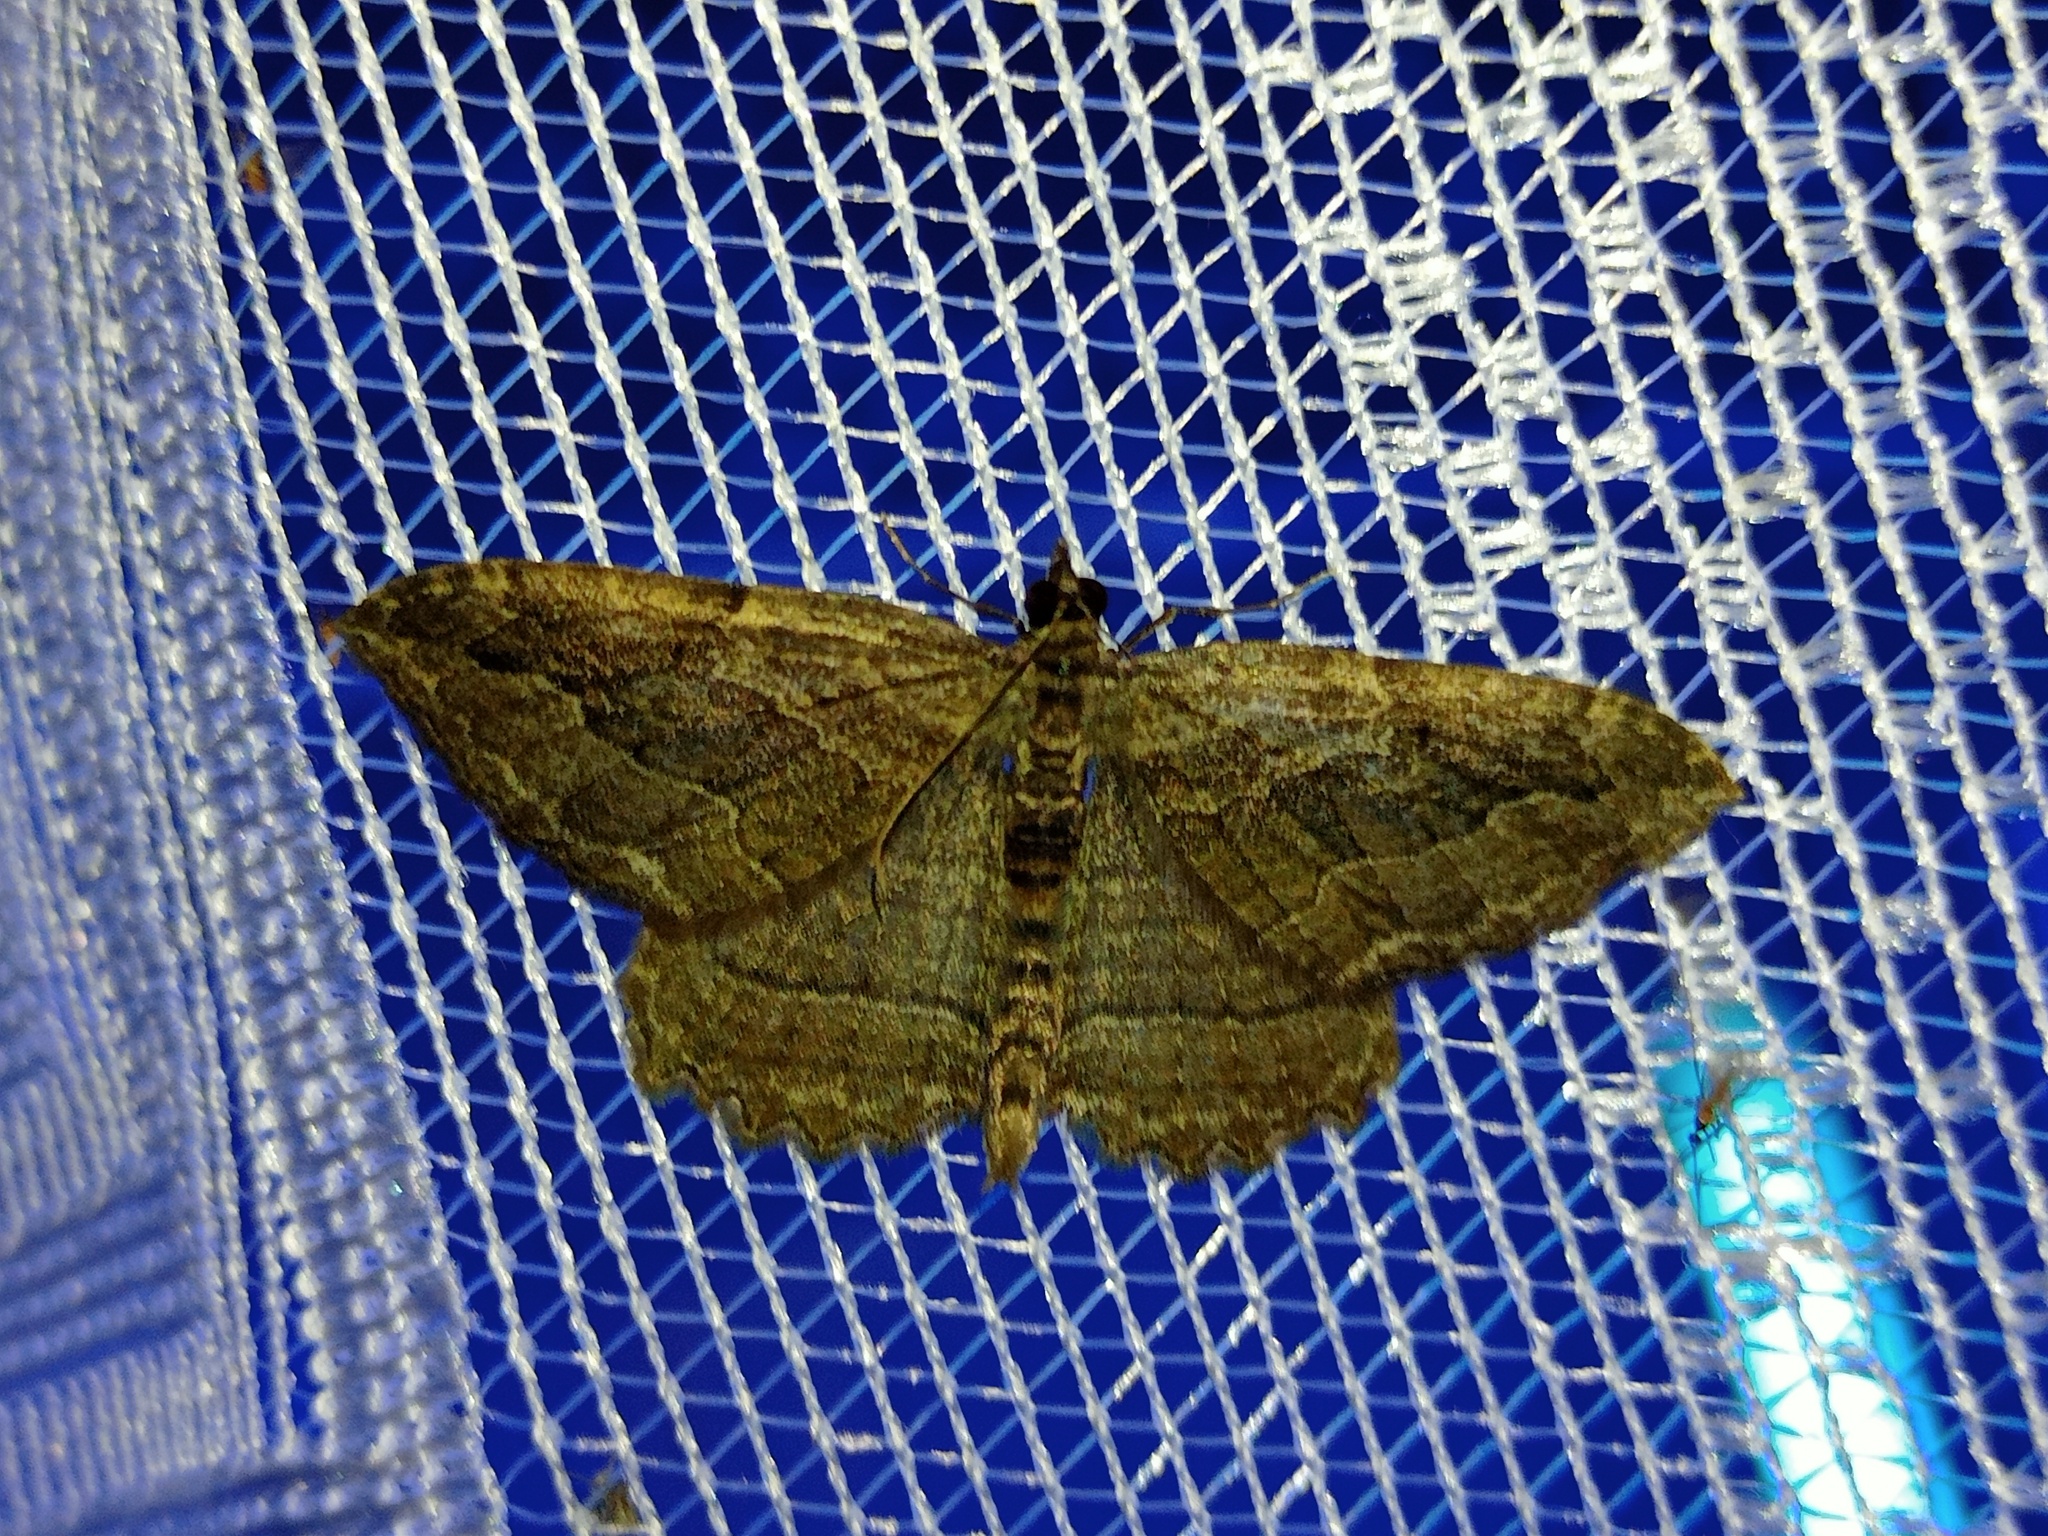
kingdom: Animalia
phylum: Arthropoda
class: Insecta
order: Lepidoptera
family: Geometridae
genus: Philereme
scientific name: Philereme transversata
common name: Dark umber
